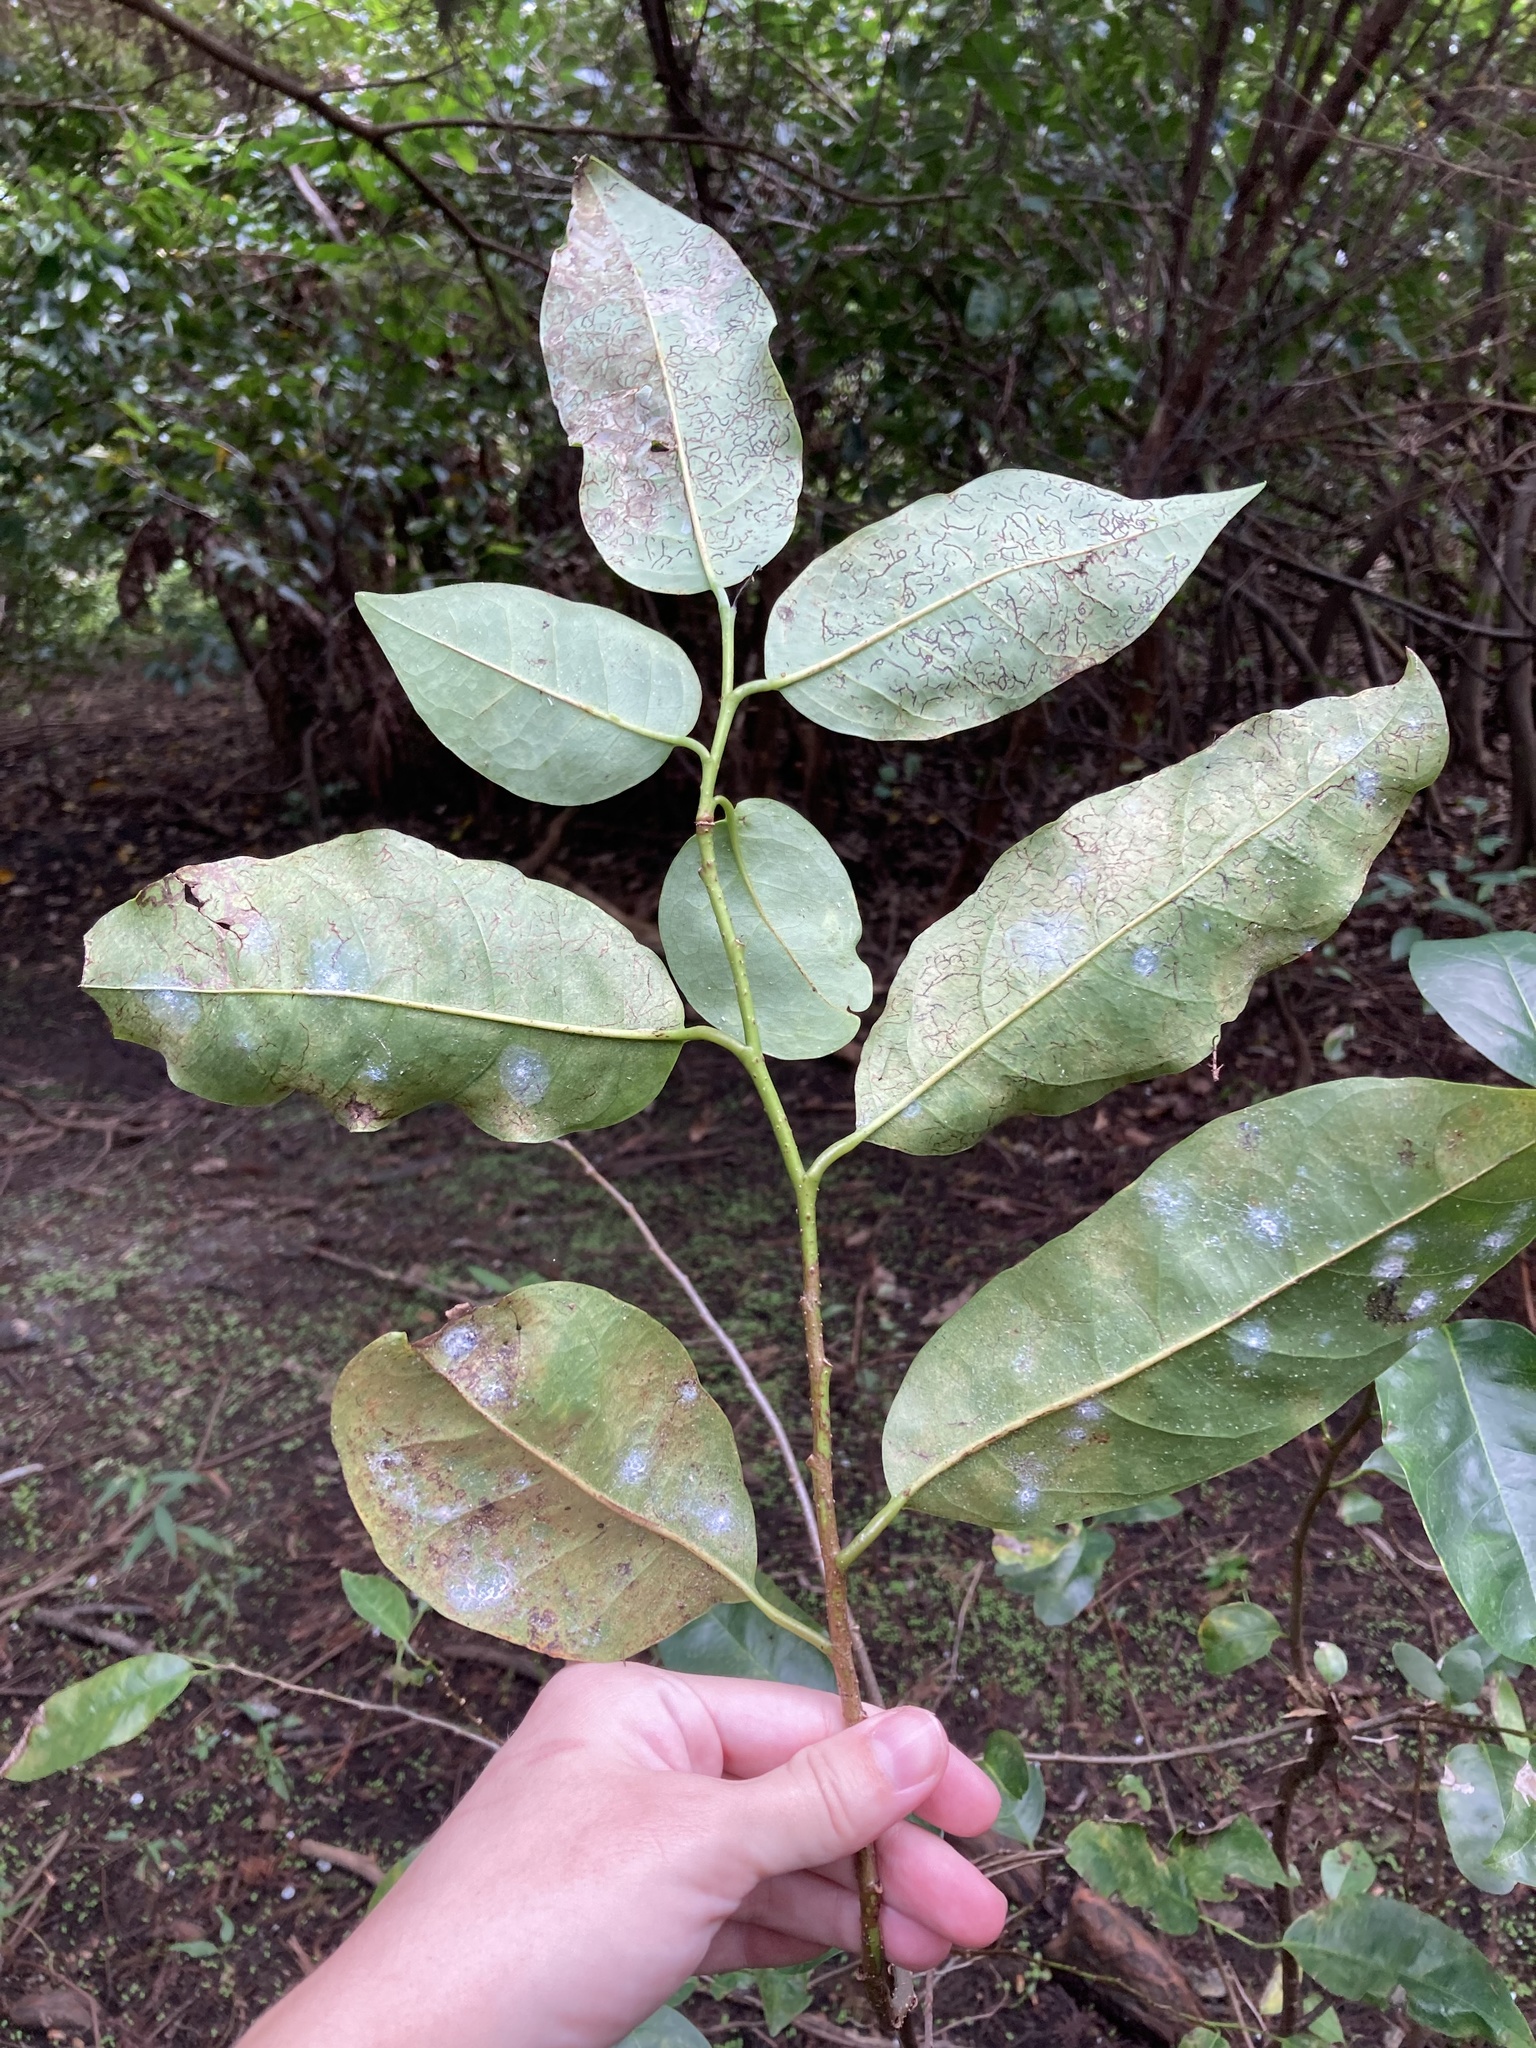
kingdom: Plantae
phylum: Tracheophyta
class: Magnoliopsida
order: Magnoliales
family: Annonaceae
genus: Annona
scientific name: Annona glabra
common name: Monkey apple
